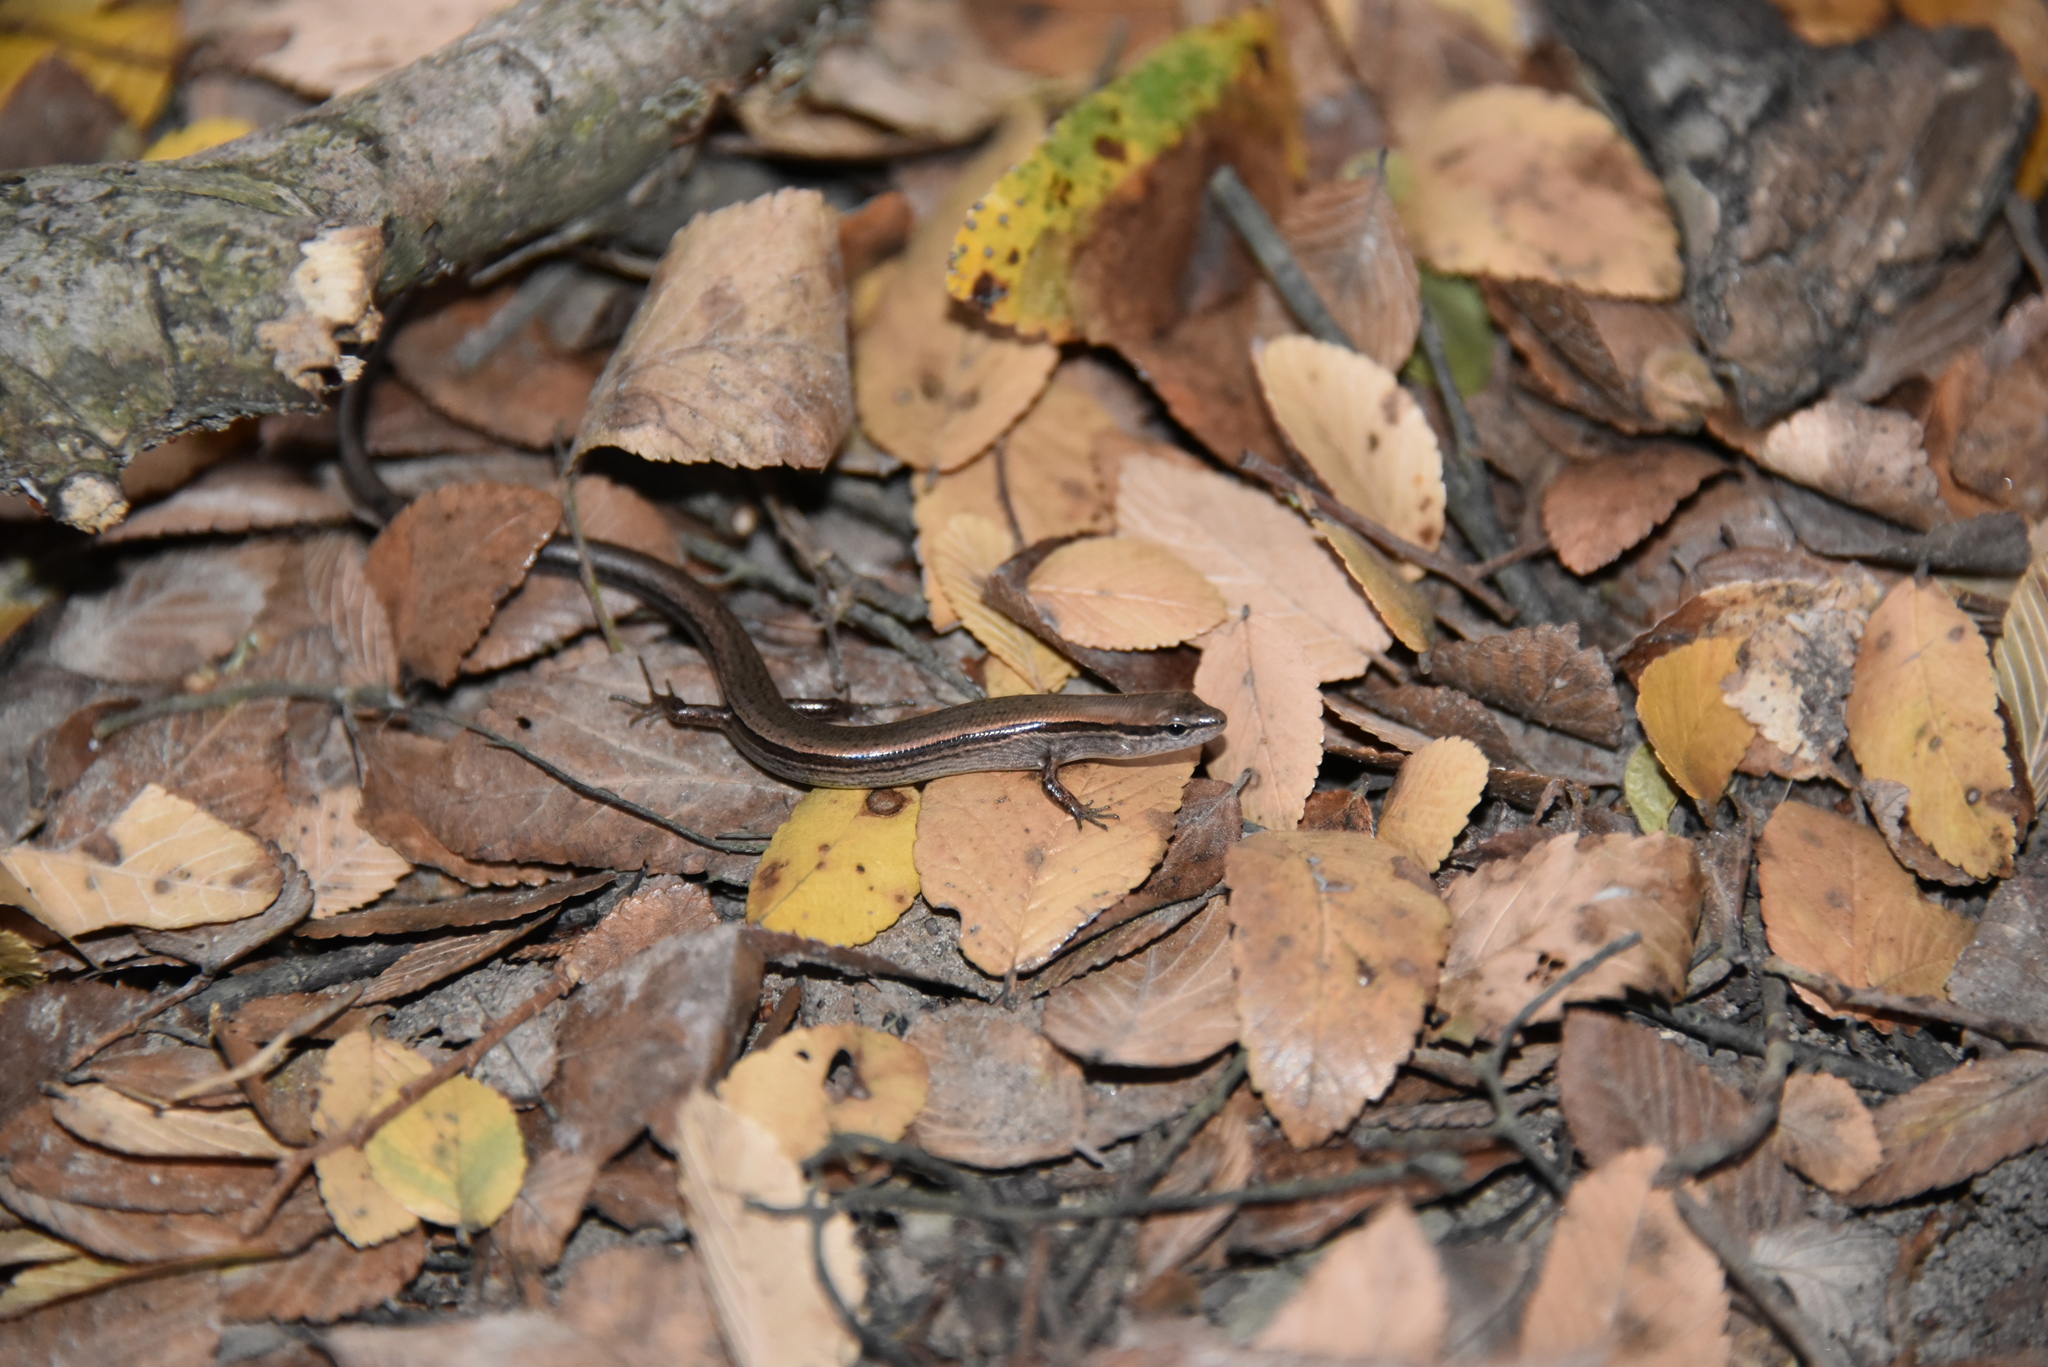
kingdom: Animalia
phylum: Chordata
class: Squamata
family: Scincidae
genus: Scincella
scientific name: Scincella lateralis
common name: Ground skink
